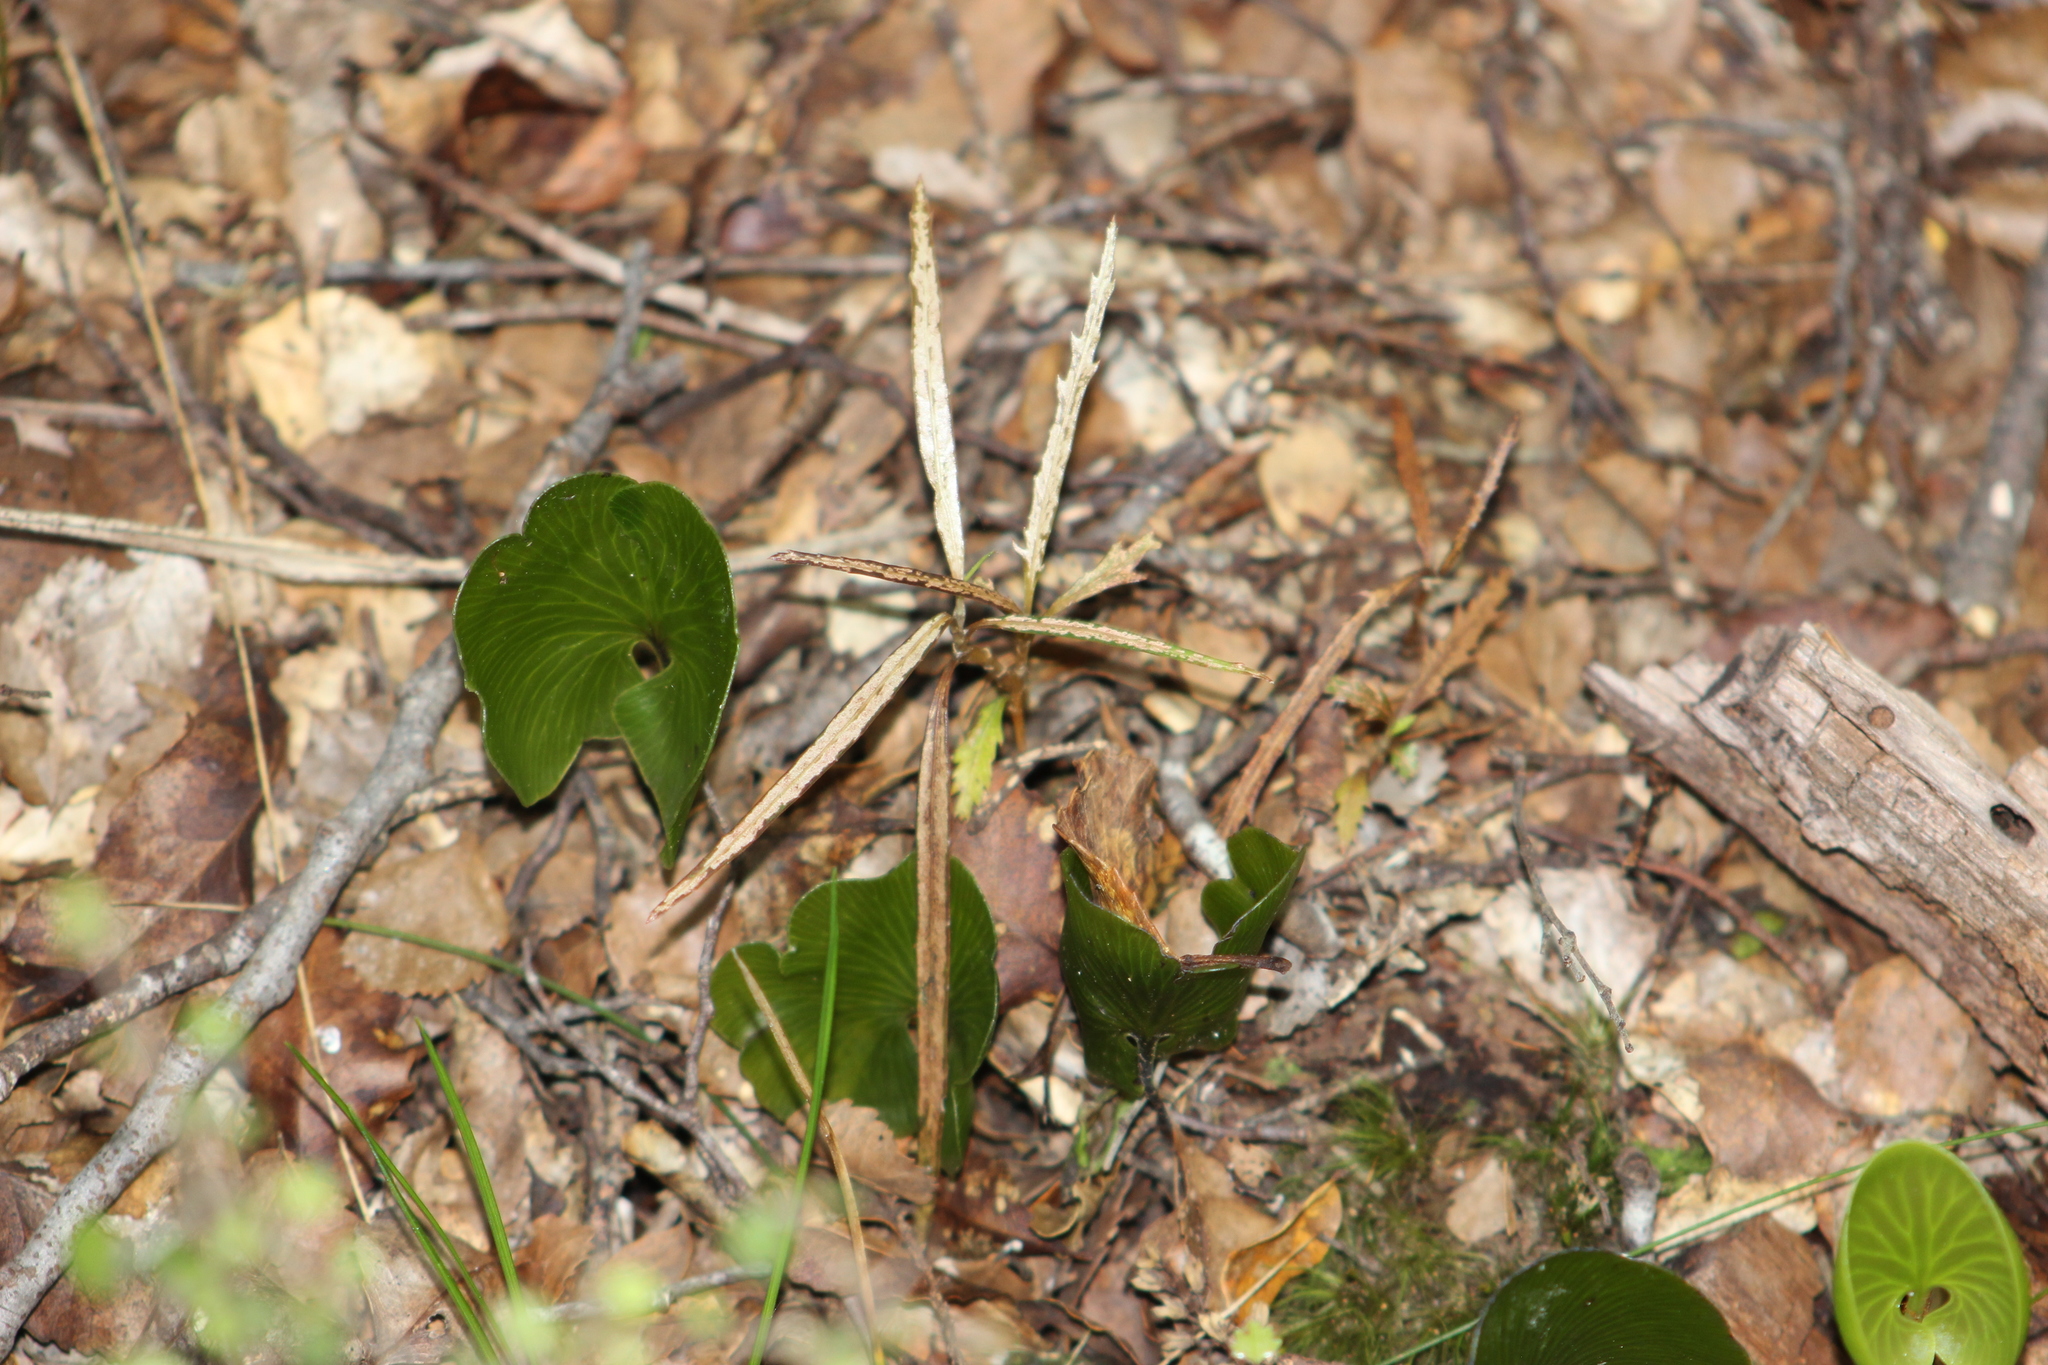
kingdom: Plantae
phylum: Tracheophyta
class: Magnoliopsida
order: Apiales
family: Araliaceae
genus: Pseudopanax
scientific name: Pseudopanax crassifolius
